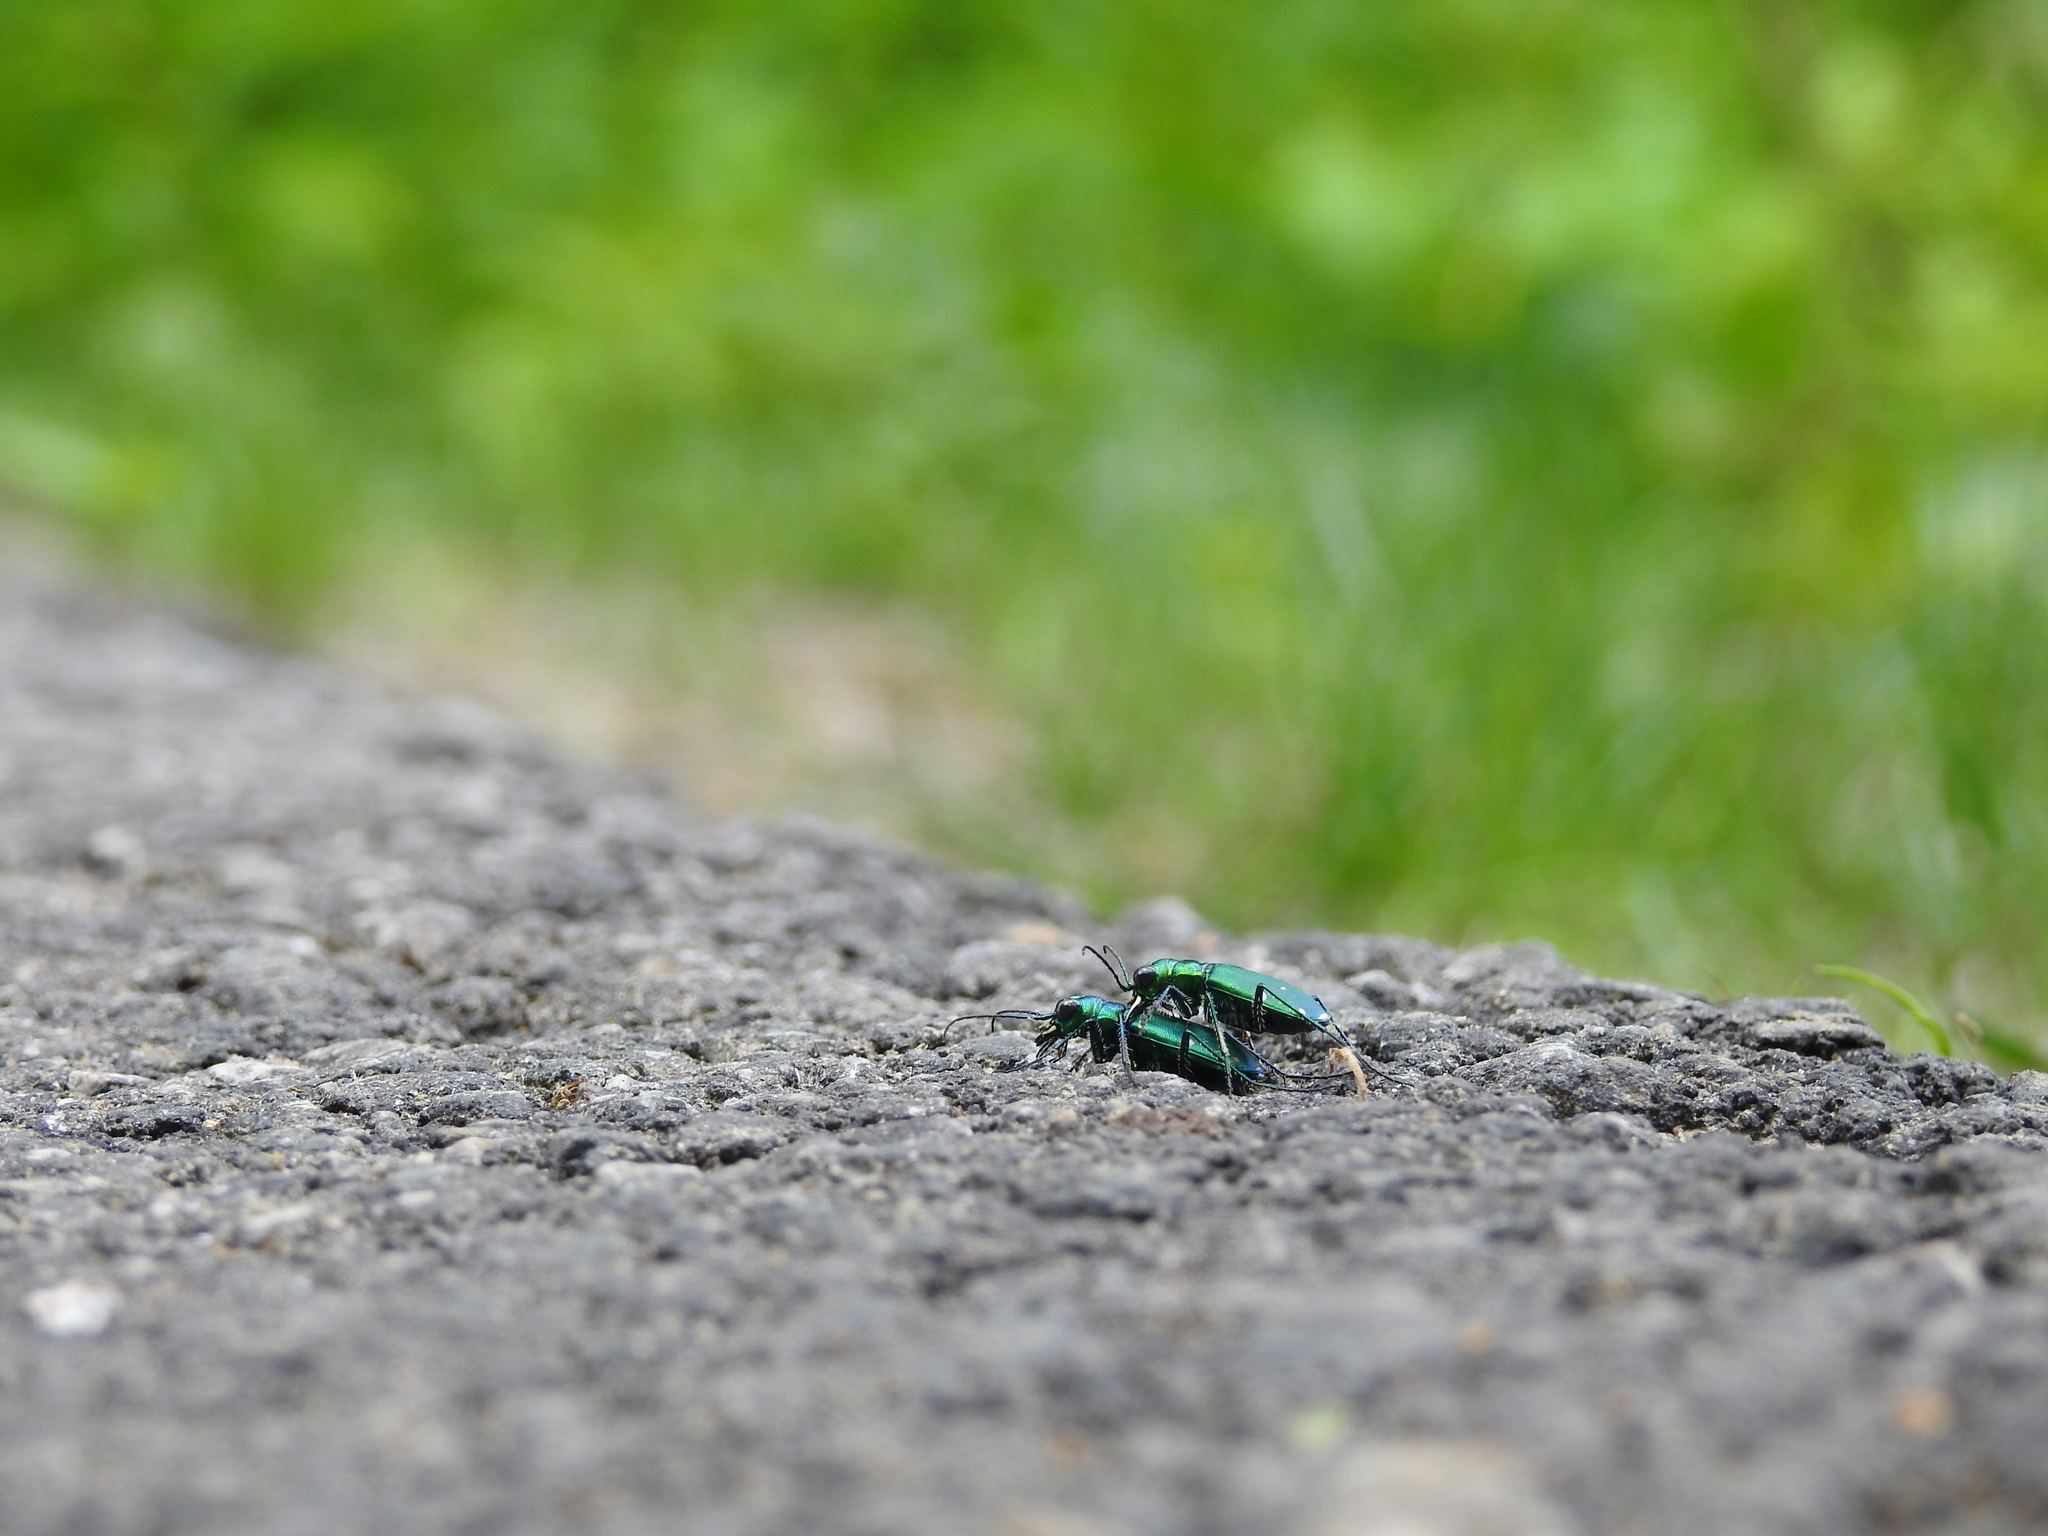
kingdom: Animalia
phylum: Arthropoda
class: Insecta
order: Coleoptera
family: Carabidae
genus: Cicindela
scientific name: Cicindela sexguttata
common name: Six-spotted tiger beetle
